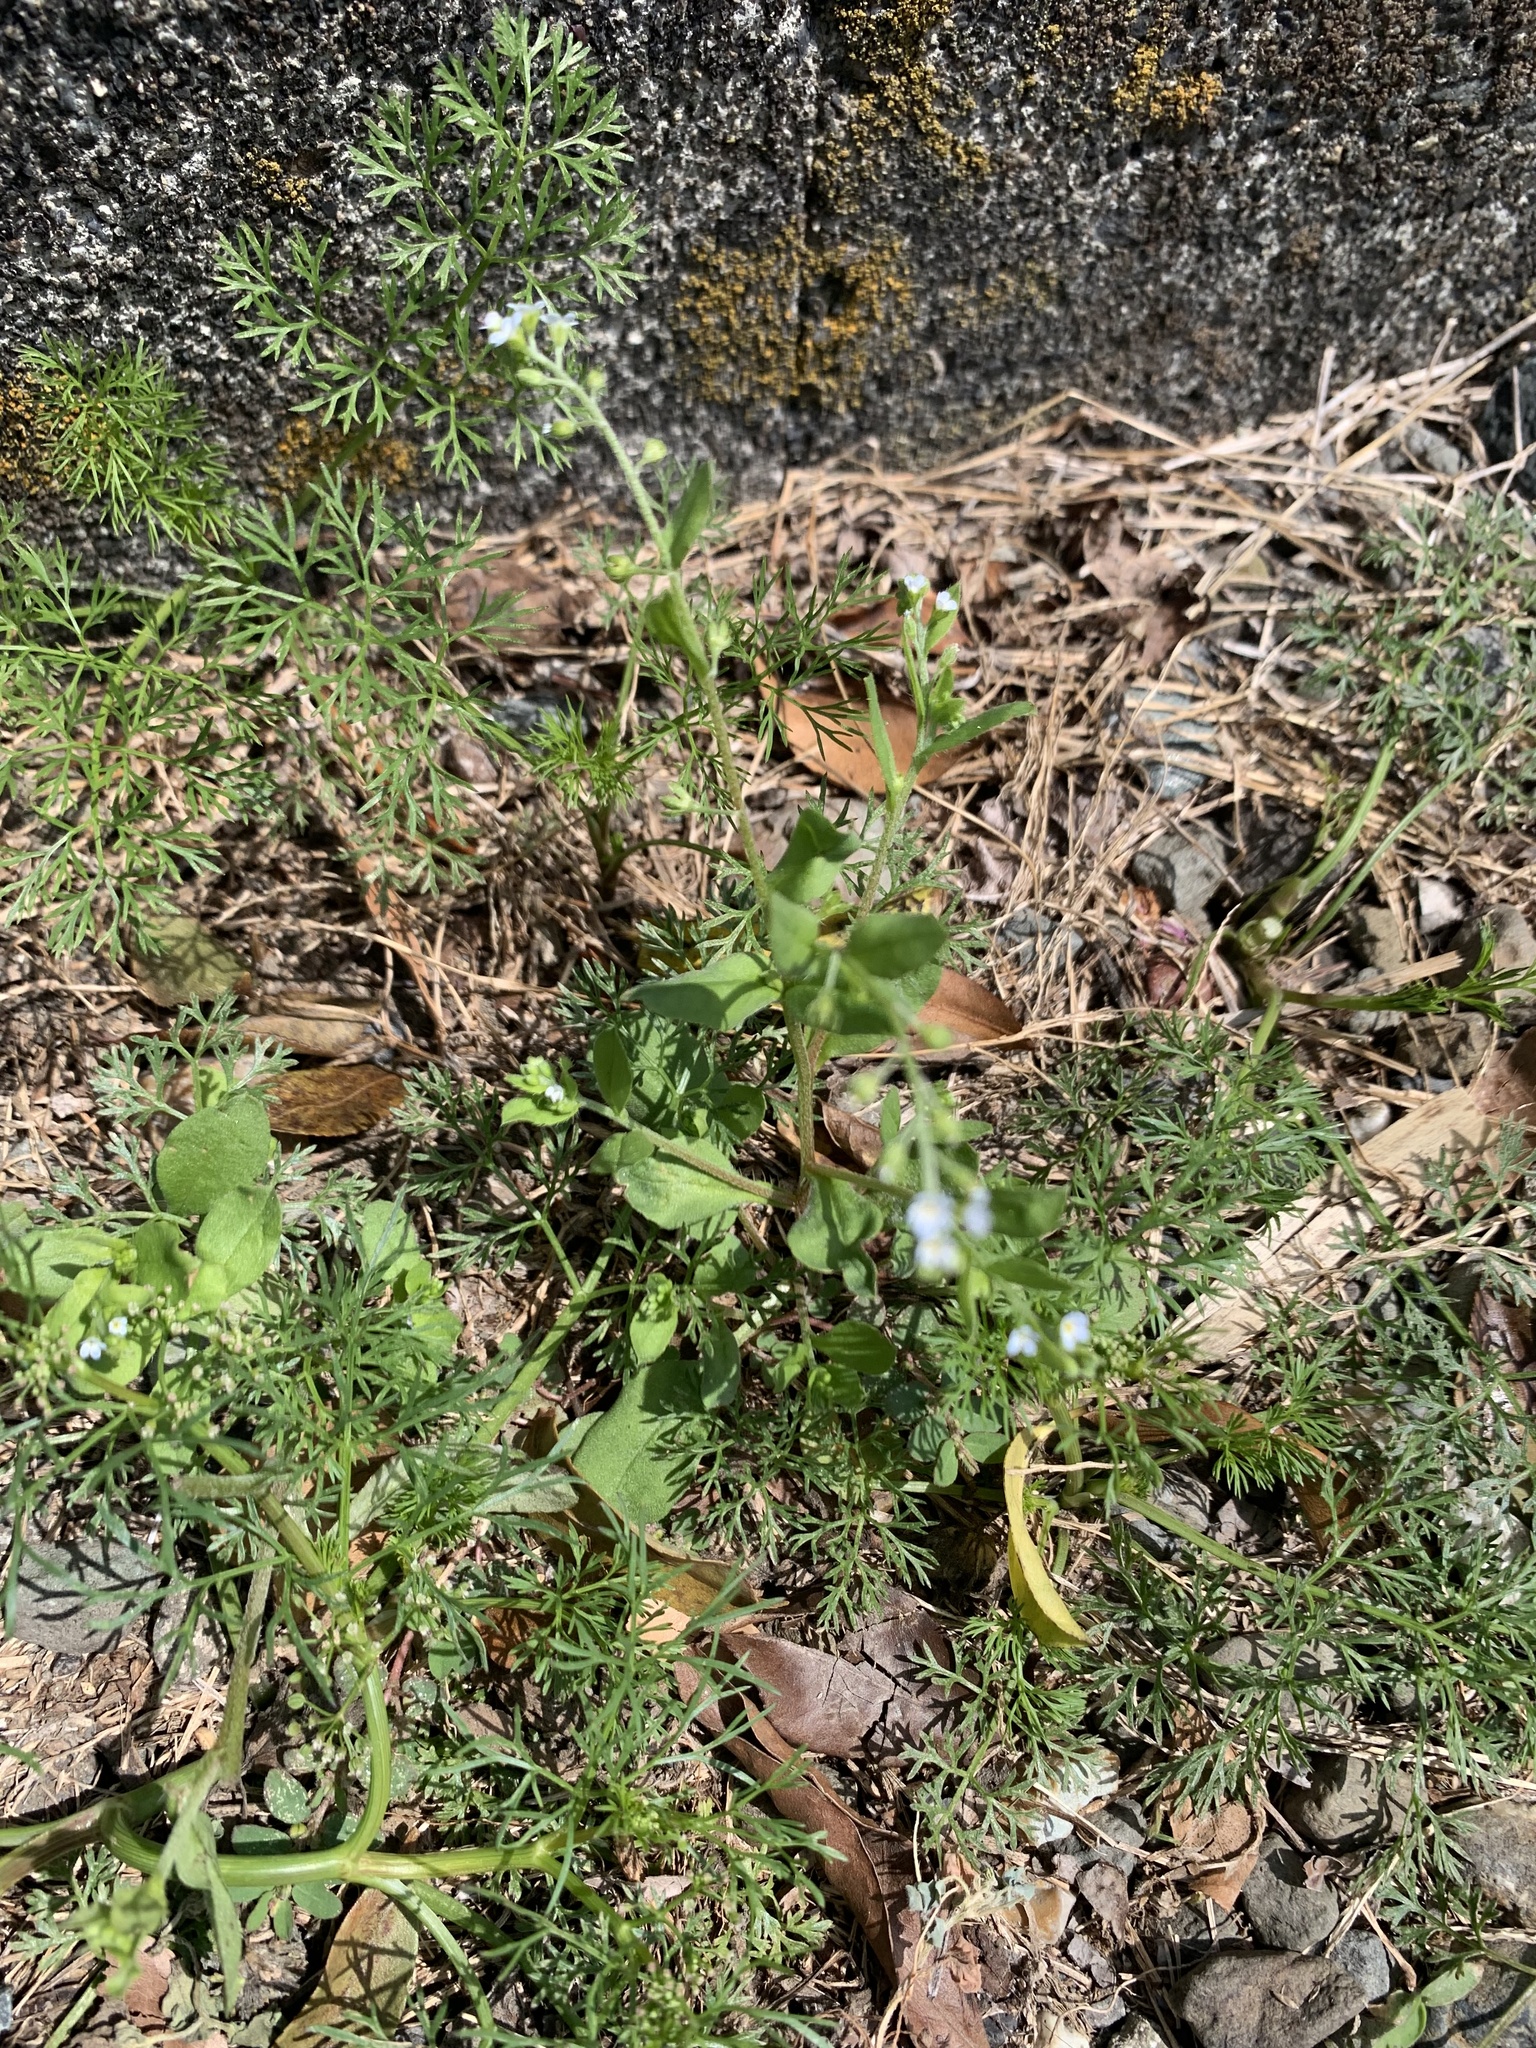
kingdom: Plantae
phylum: Tracheophyta
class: Magnoliopsida
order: Boraginales
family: Boraginaceae
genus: Trigonotis
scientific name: Trigonotis peduncularis
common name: Cucumber herb
